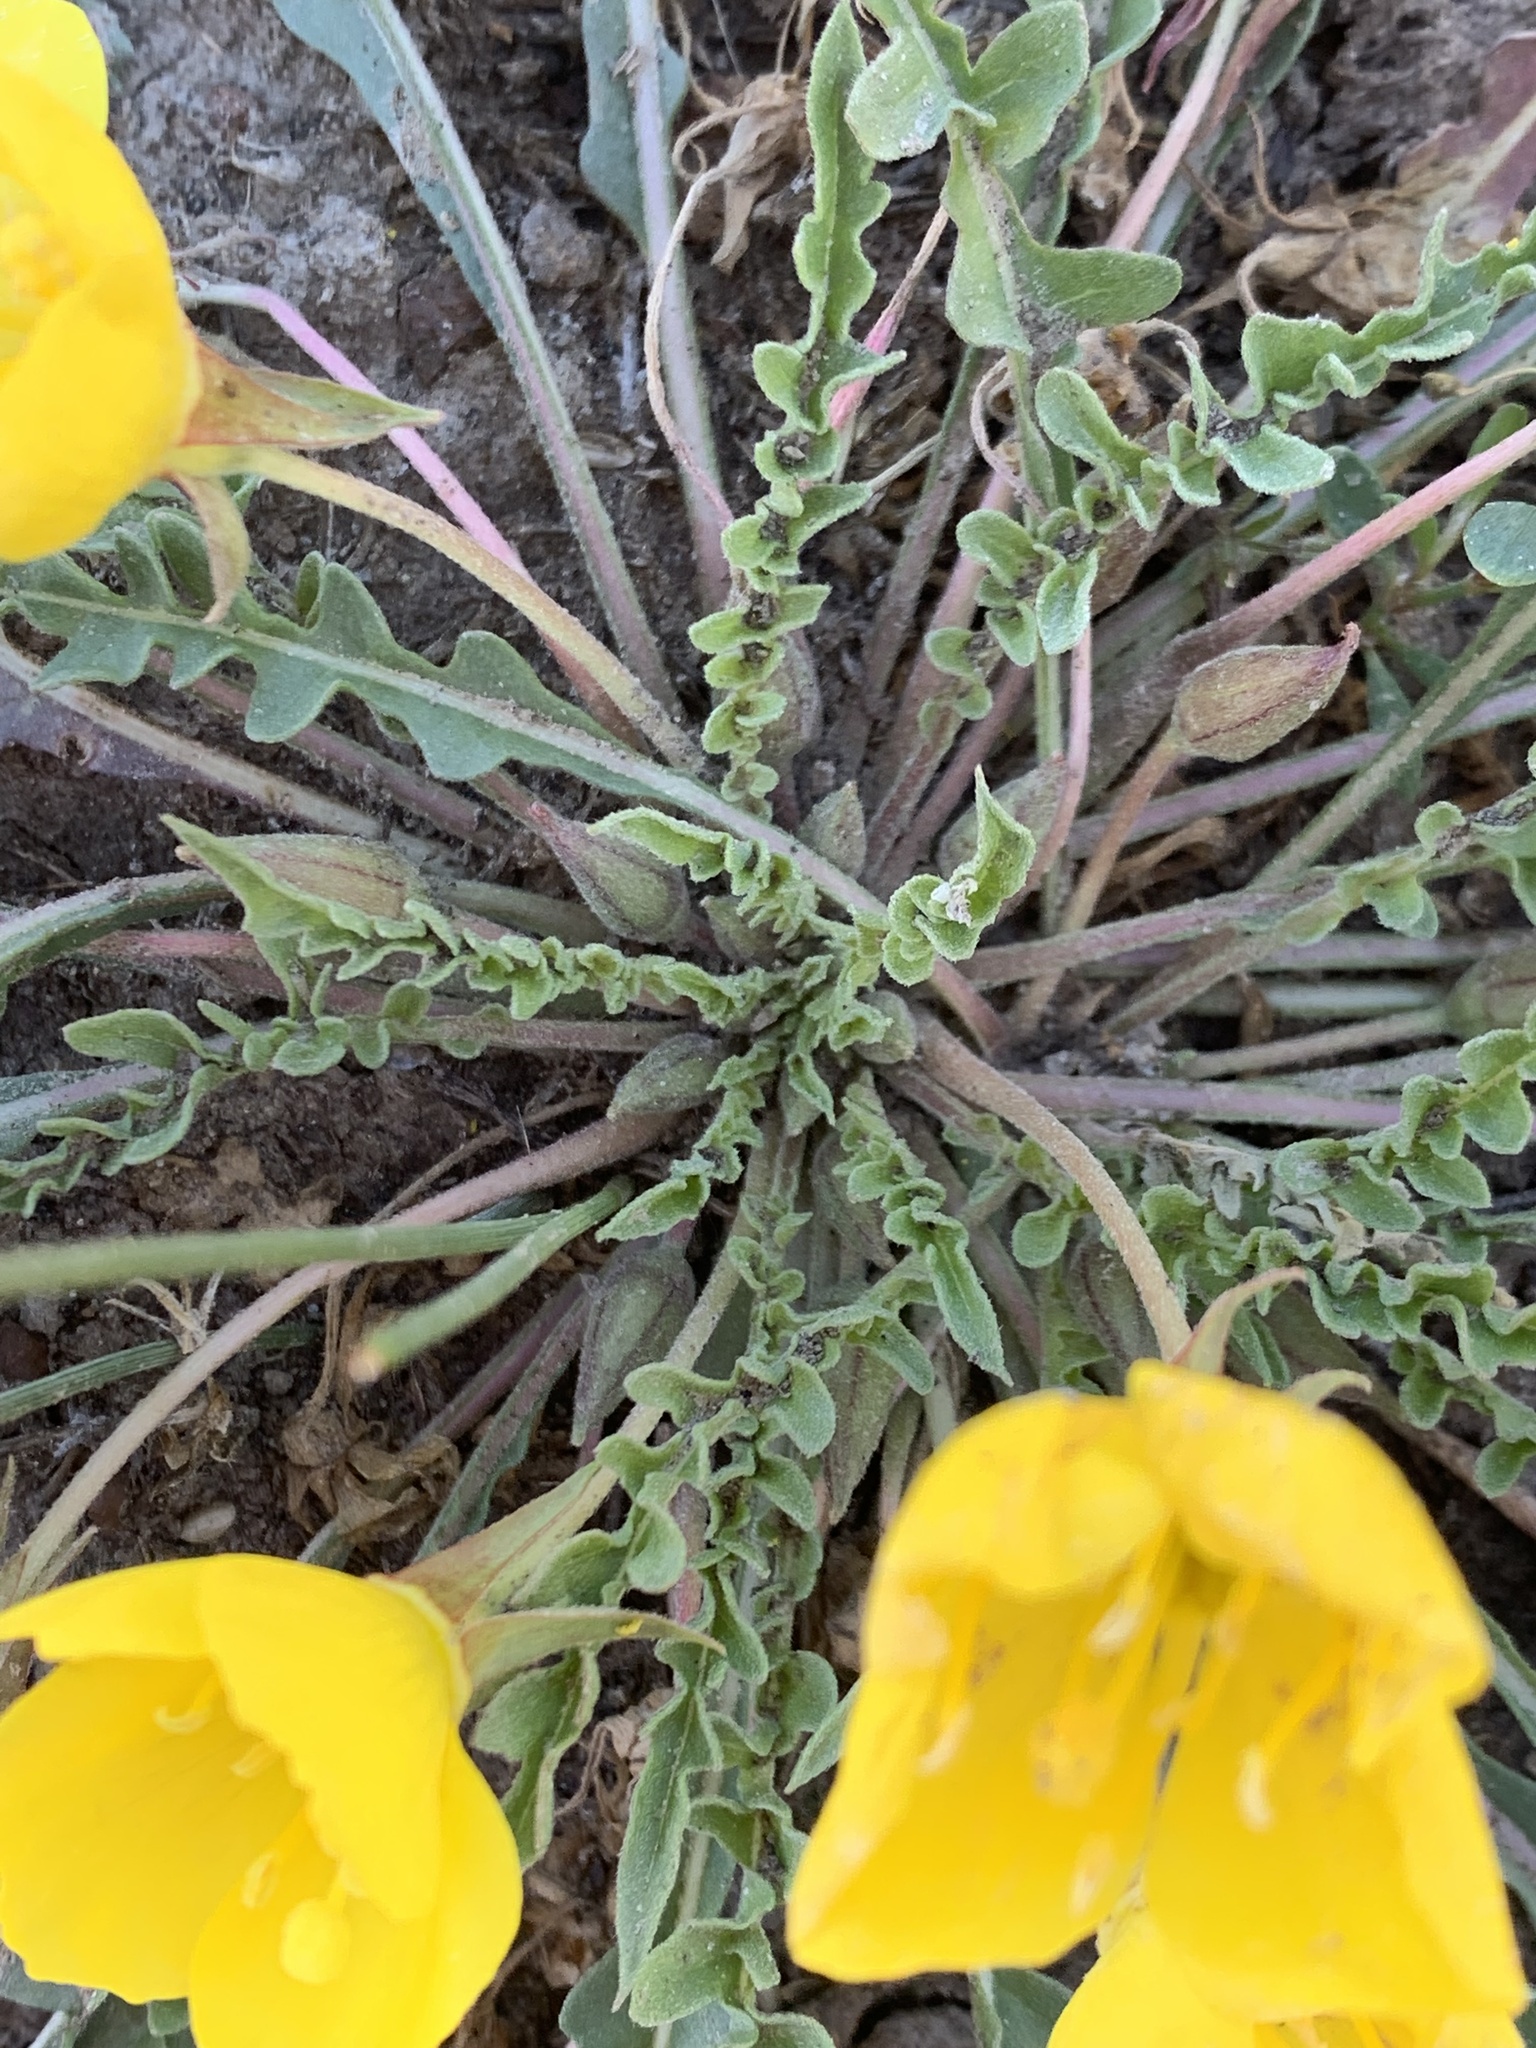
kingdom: Plantae
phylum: Tracheophyta
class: Magnoliopsida
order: Myrtales
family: Onagraceae
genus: Taraxia
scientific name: Taraxia tanacetifolia
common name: Tansyleaf evening primrose
